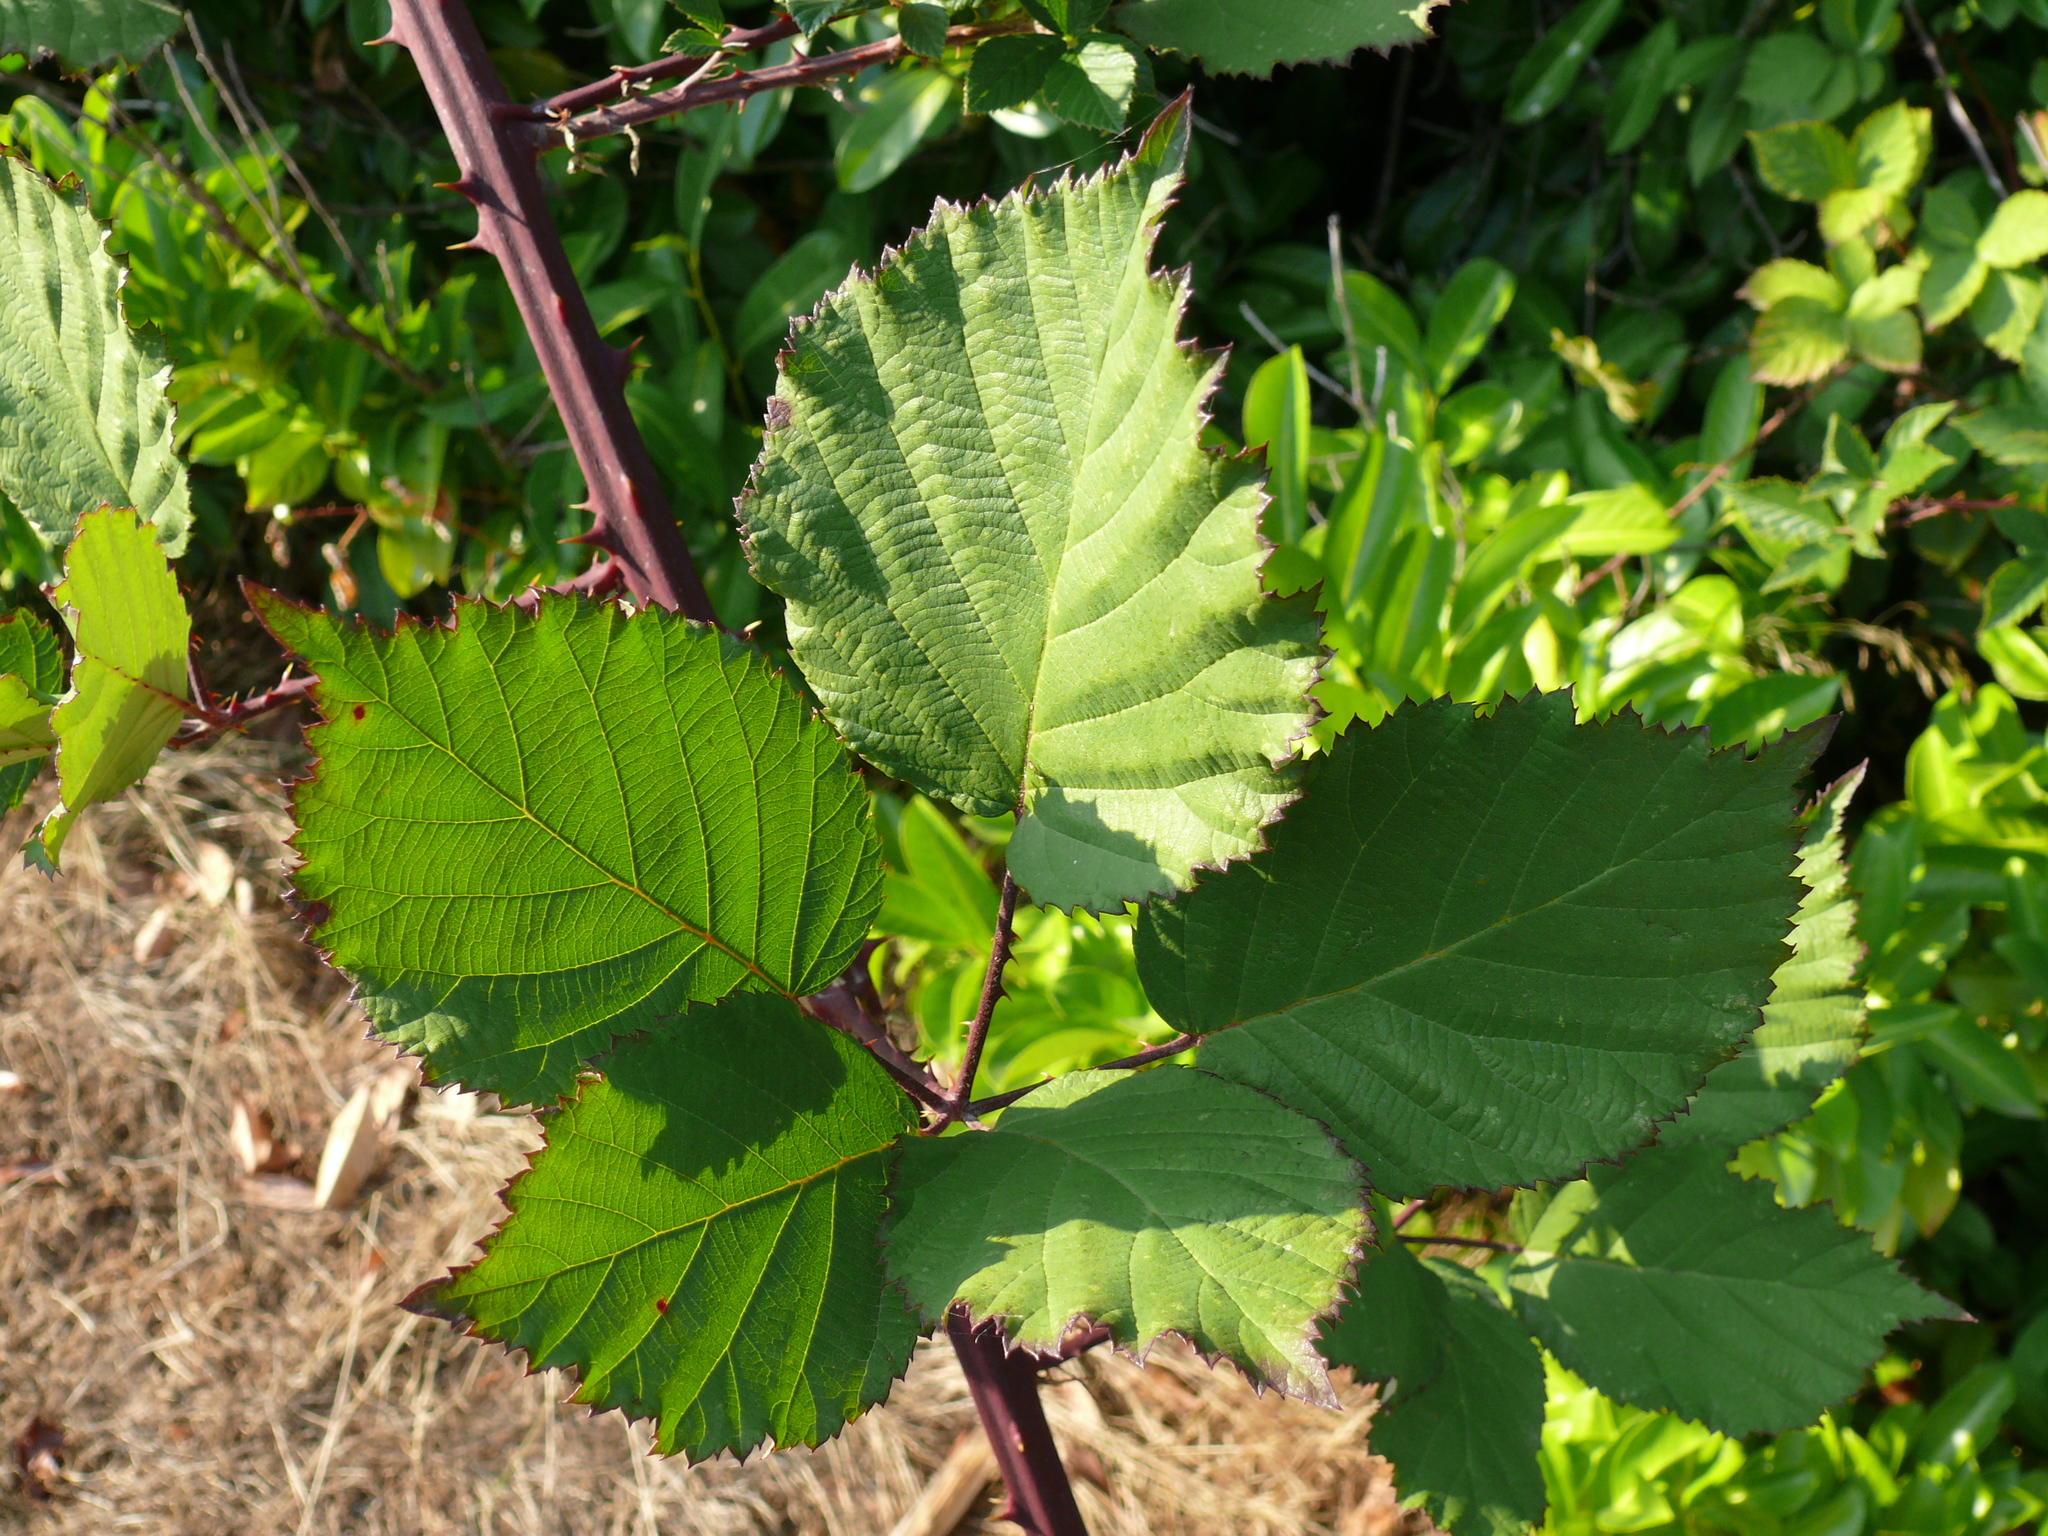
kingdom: Plantae
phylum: Tracheophyta
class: Magnoliopsida
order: Rosales
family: Rosaceae
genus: Rubus
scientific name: Rubus armeniacus
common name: Himalayan blackberry
